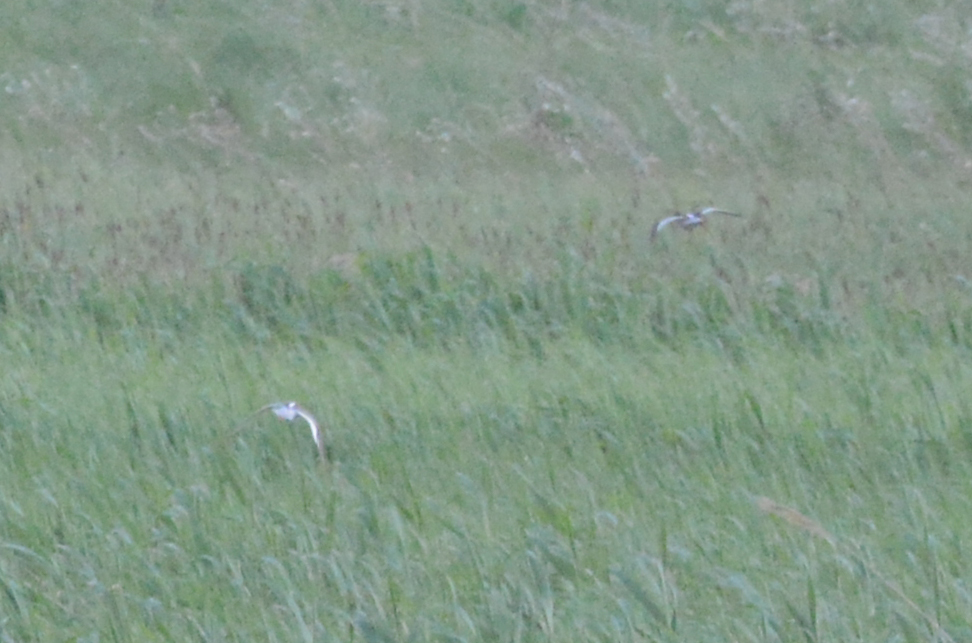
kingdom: Animalia
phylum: Chordata
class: Aves
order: Charadriiformes
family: Scolopacidae
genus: Tringa
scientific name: Tringa totanus
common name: Common redshank
